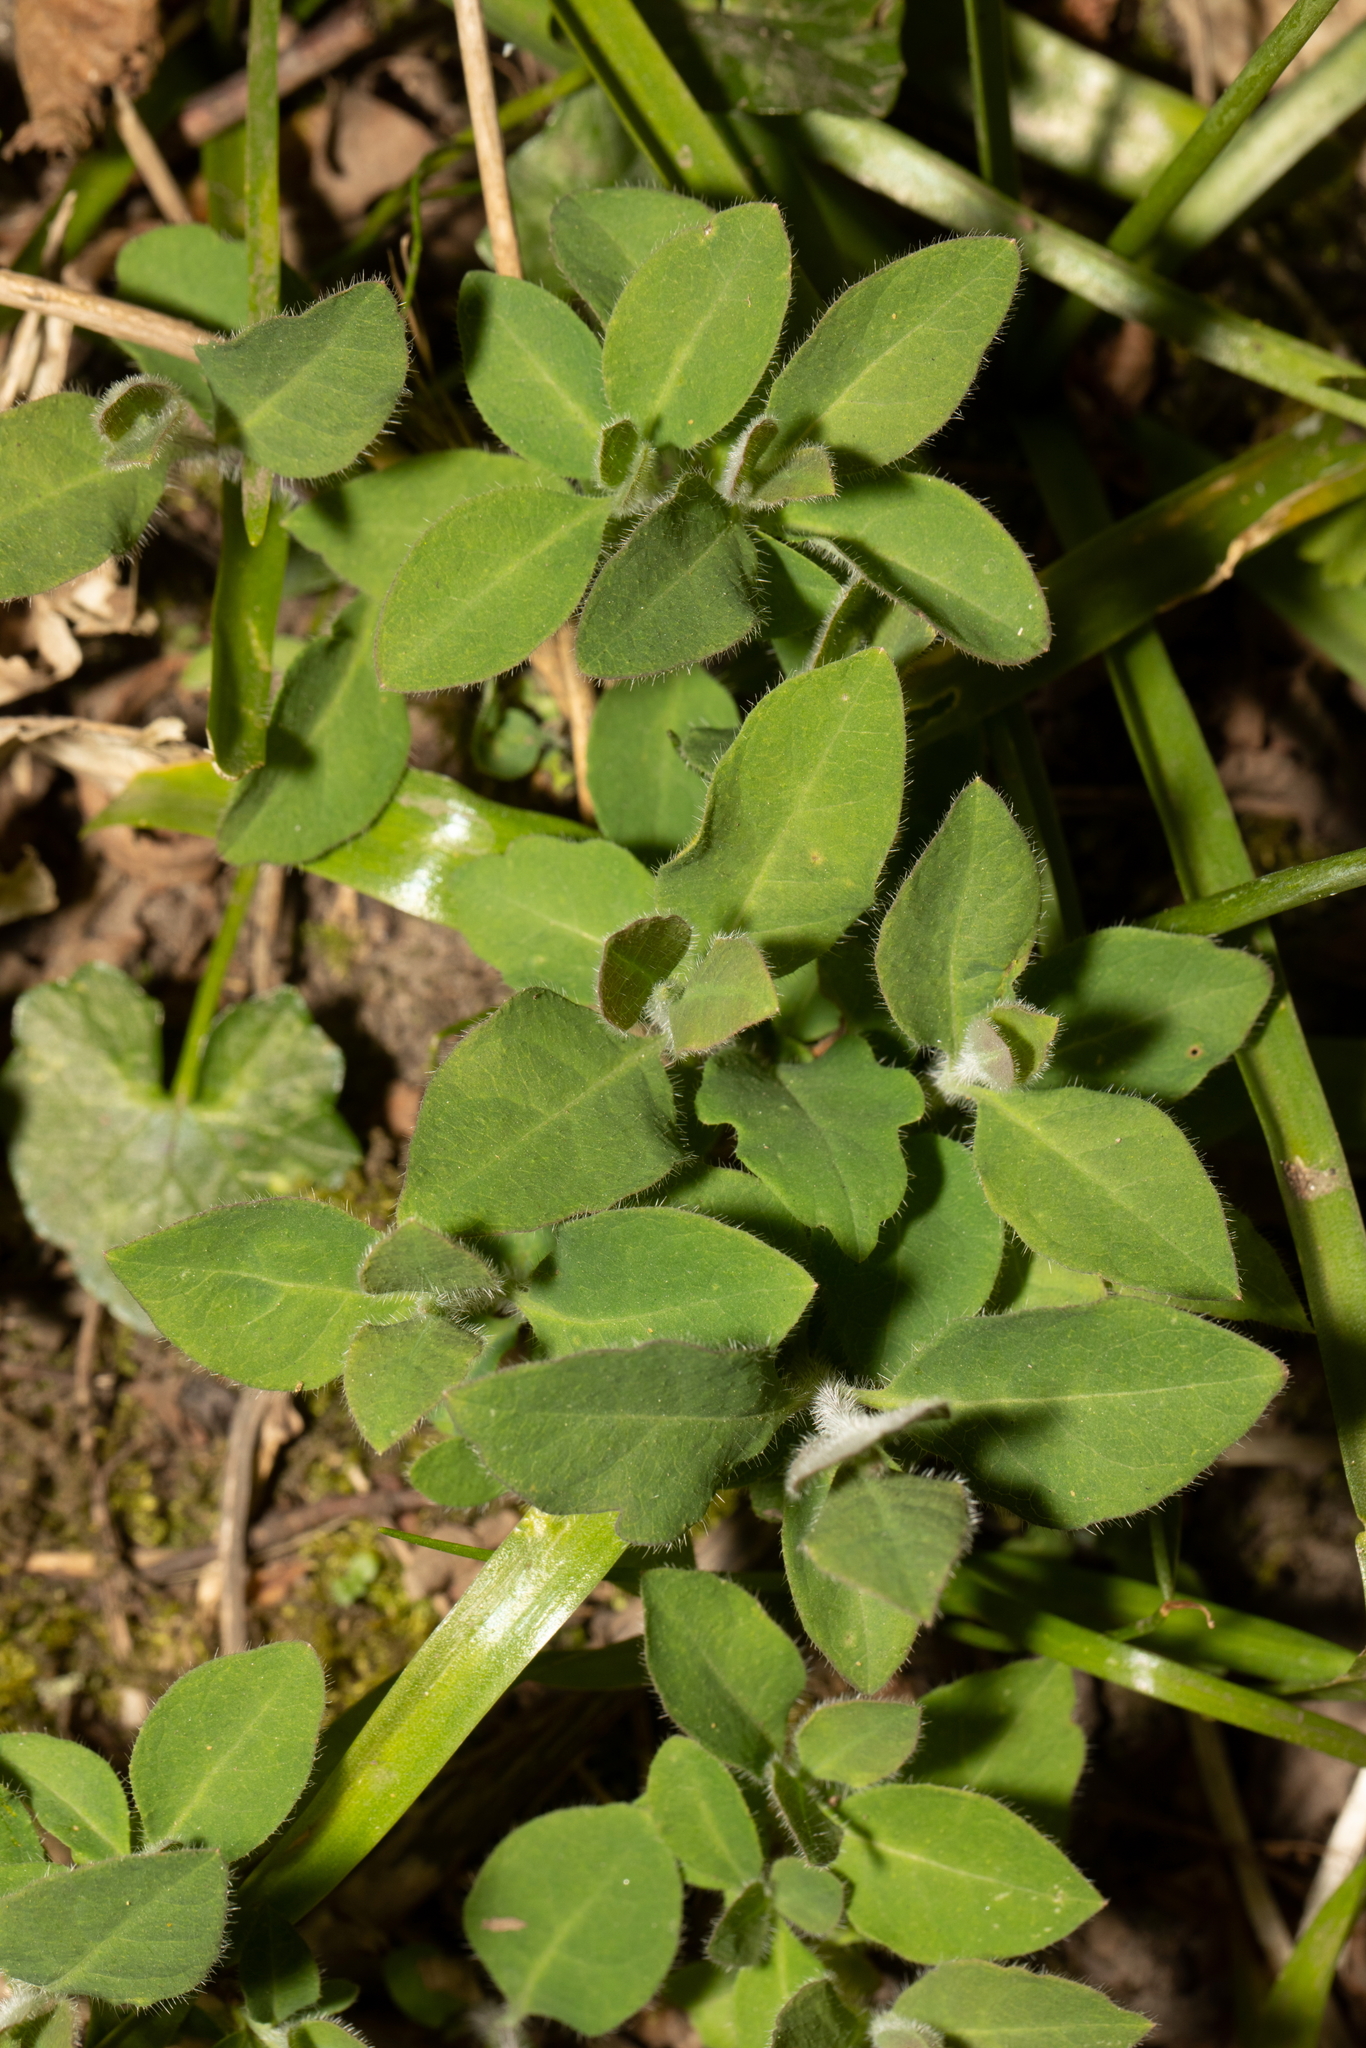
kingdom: Plantae
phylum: Tracheophyta
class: Magnoliopsida
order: Dipsacales
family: Caprifoliaceae
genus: Lonicera
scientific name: Lonicera periclymenum
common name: European honeysuckle
